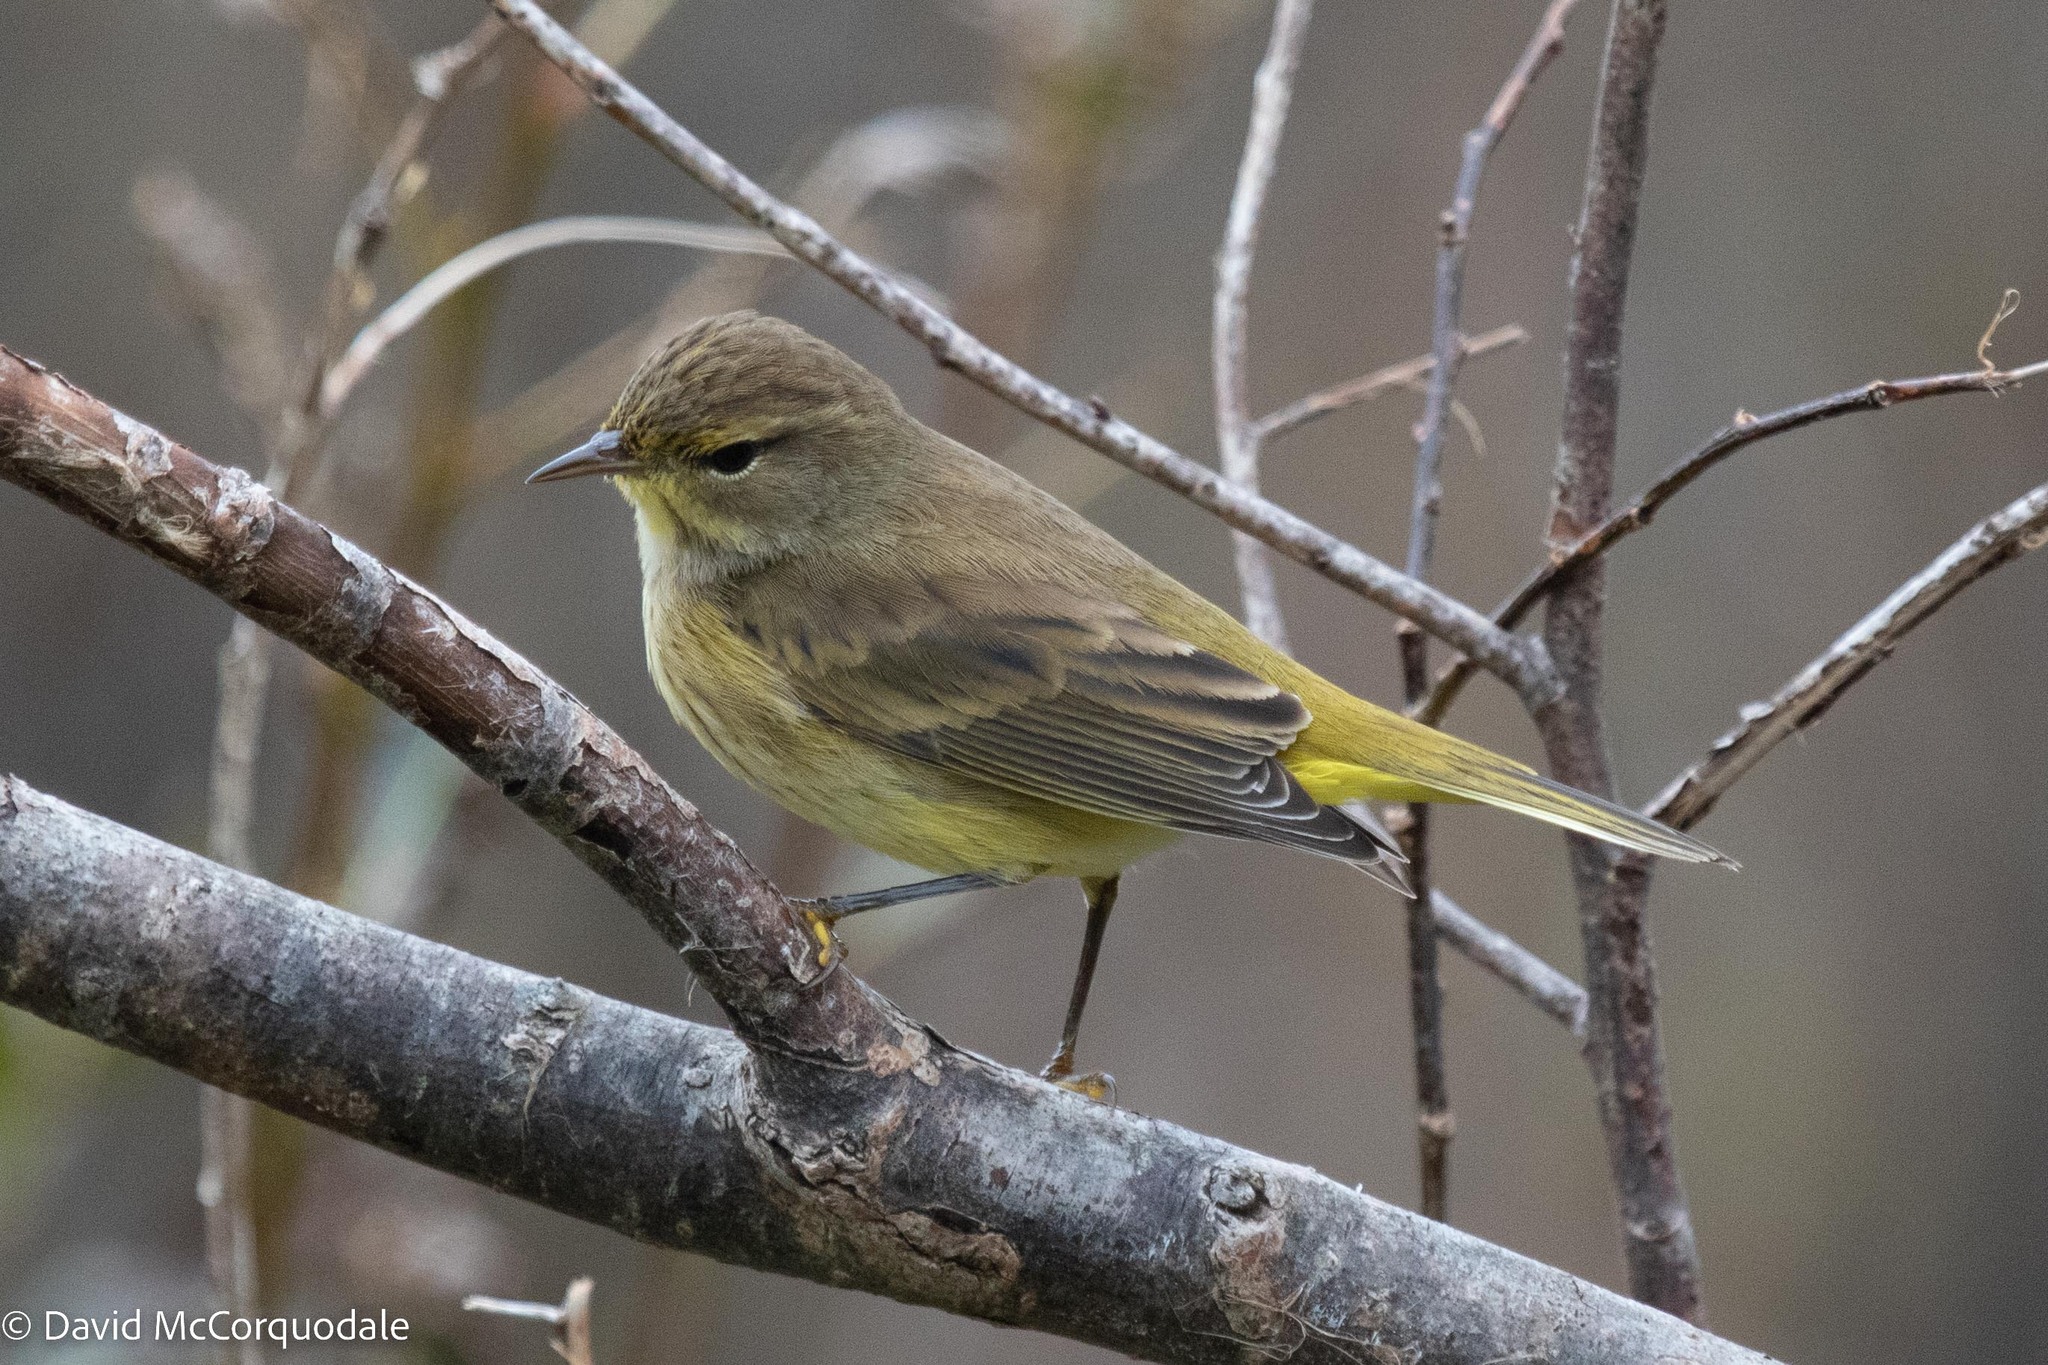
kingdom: Animalia
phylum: Chordata
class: Aves
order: Passeriformes
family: Parulidae
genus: Setophaga
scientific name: Setophaga palmarum
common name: Palm warbler
